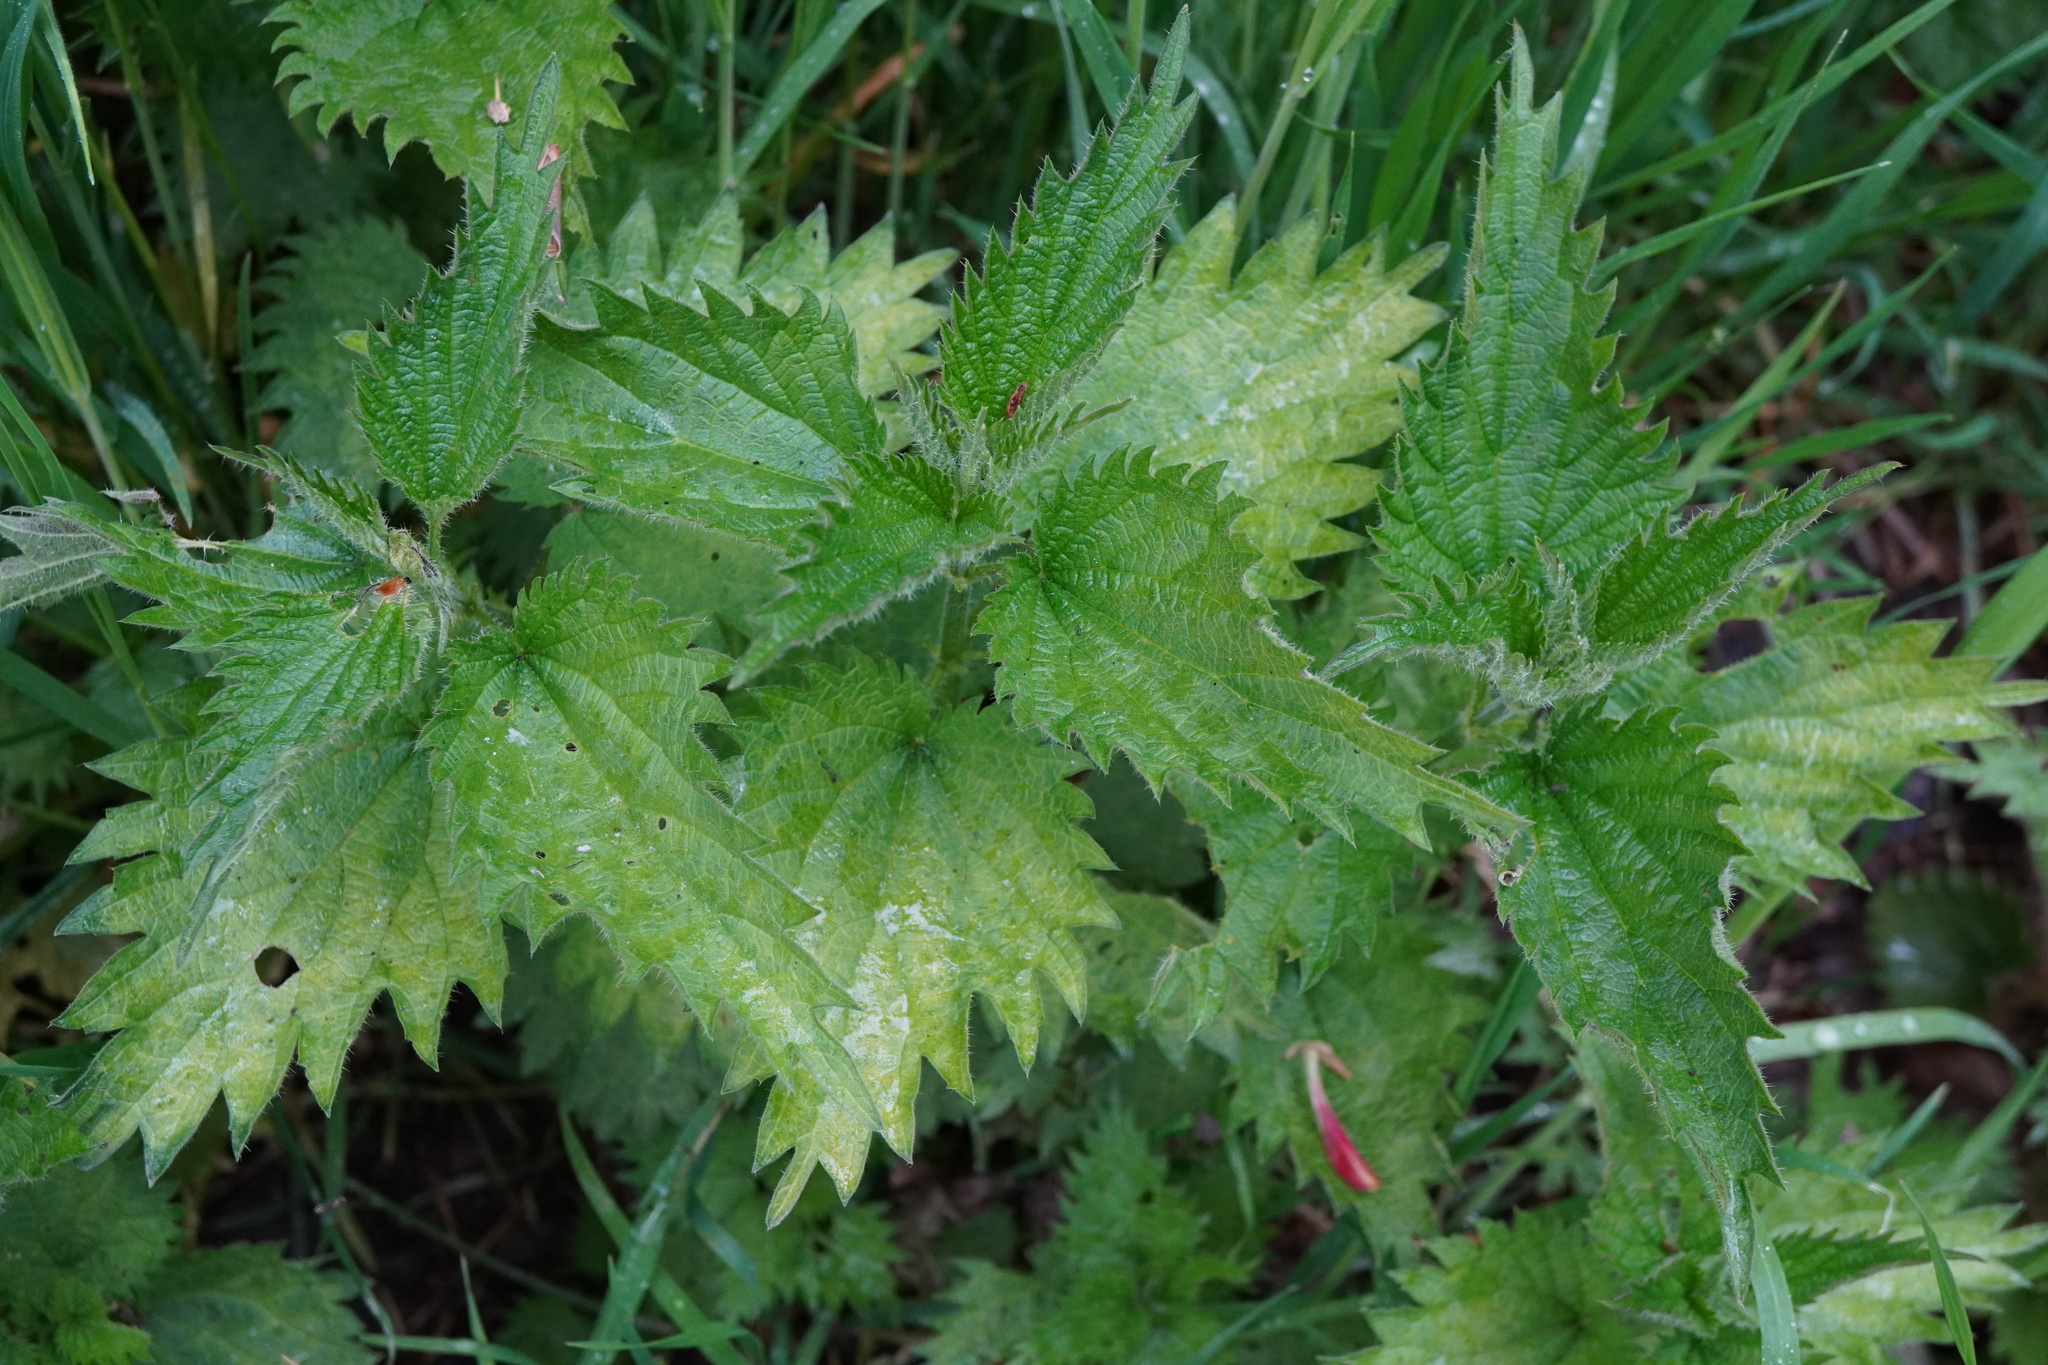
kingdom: Plantae
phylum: Tracheophyta
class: Magnoliopsida
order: Rosales
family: Urticaceae
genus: Urtica
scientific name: Urtica dioica
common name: Common nettle
